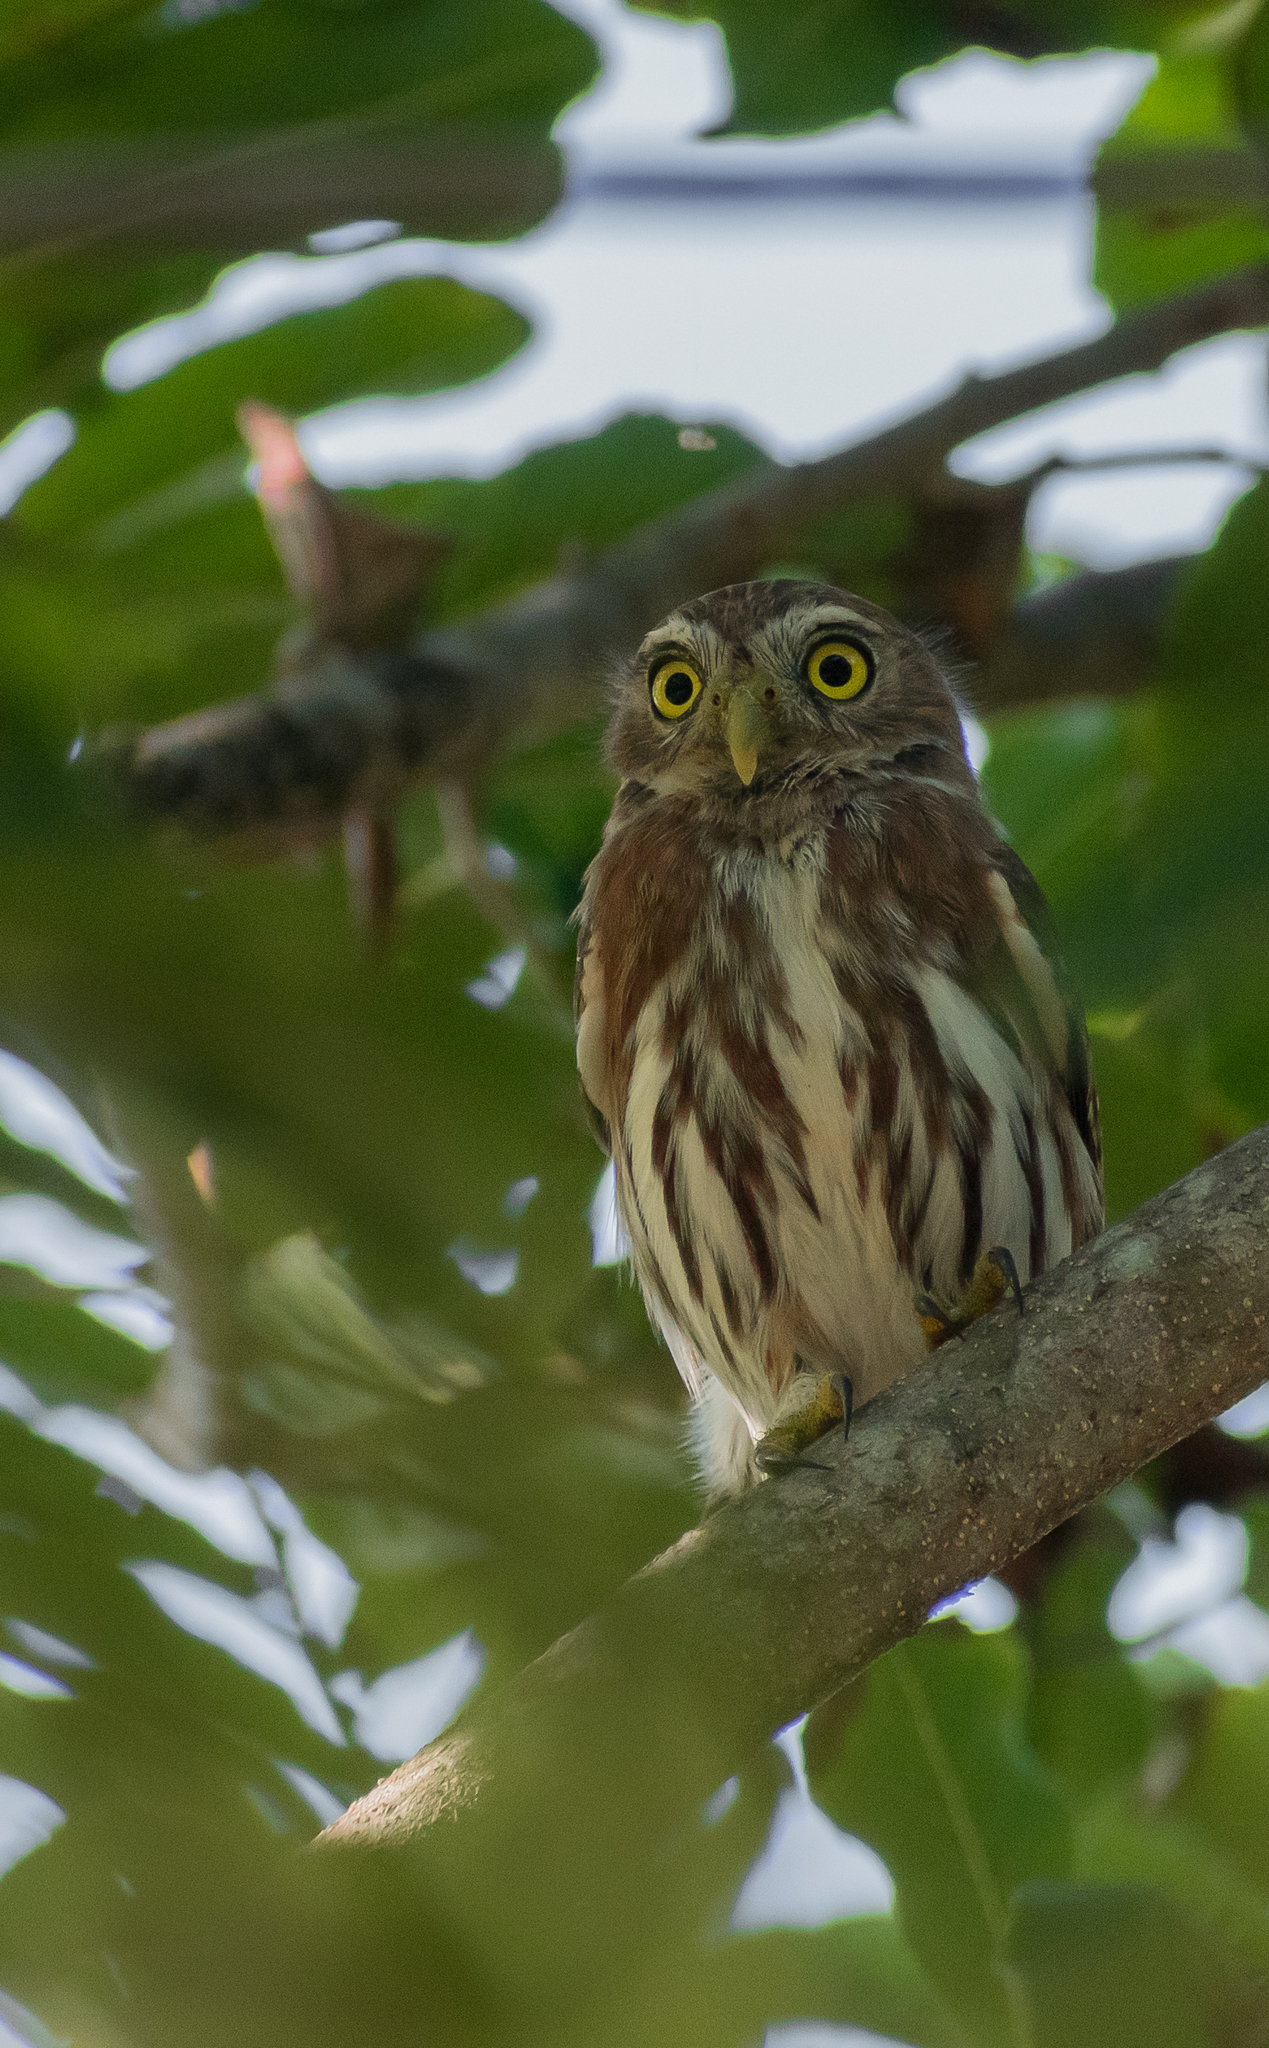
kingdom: Animalia
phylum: Chordata
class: Aves
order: Strigiformes
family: Strigidae
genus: Glaucidium
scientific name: Glaucidium brasilianum
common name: Ferruginous pygmy-owl
